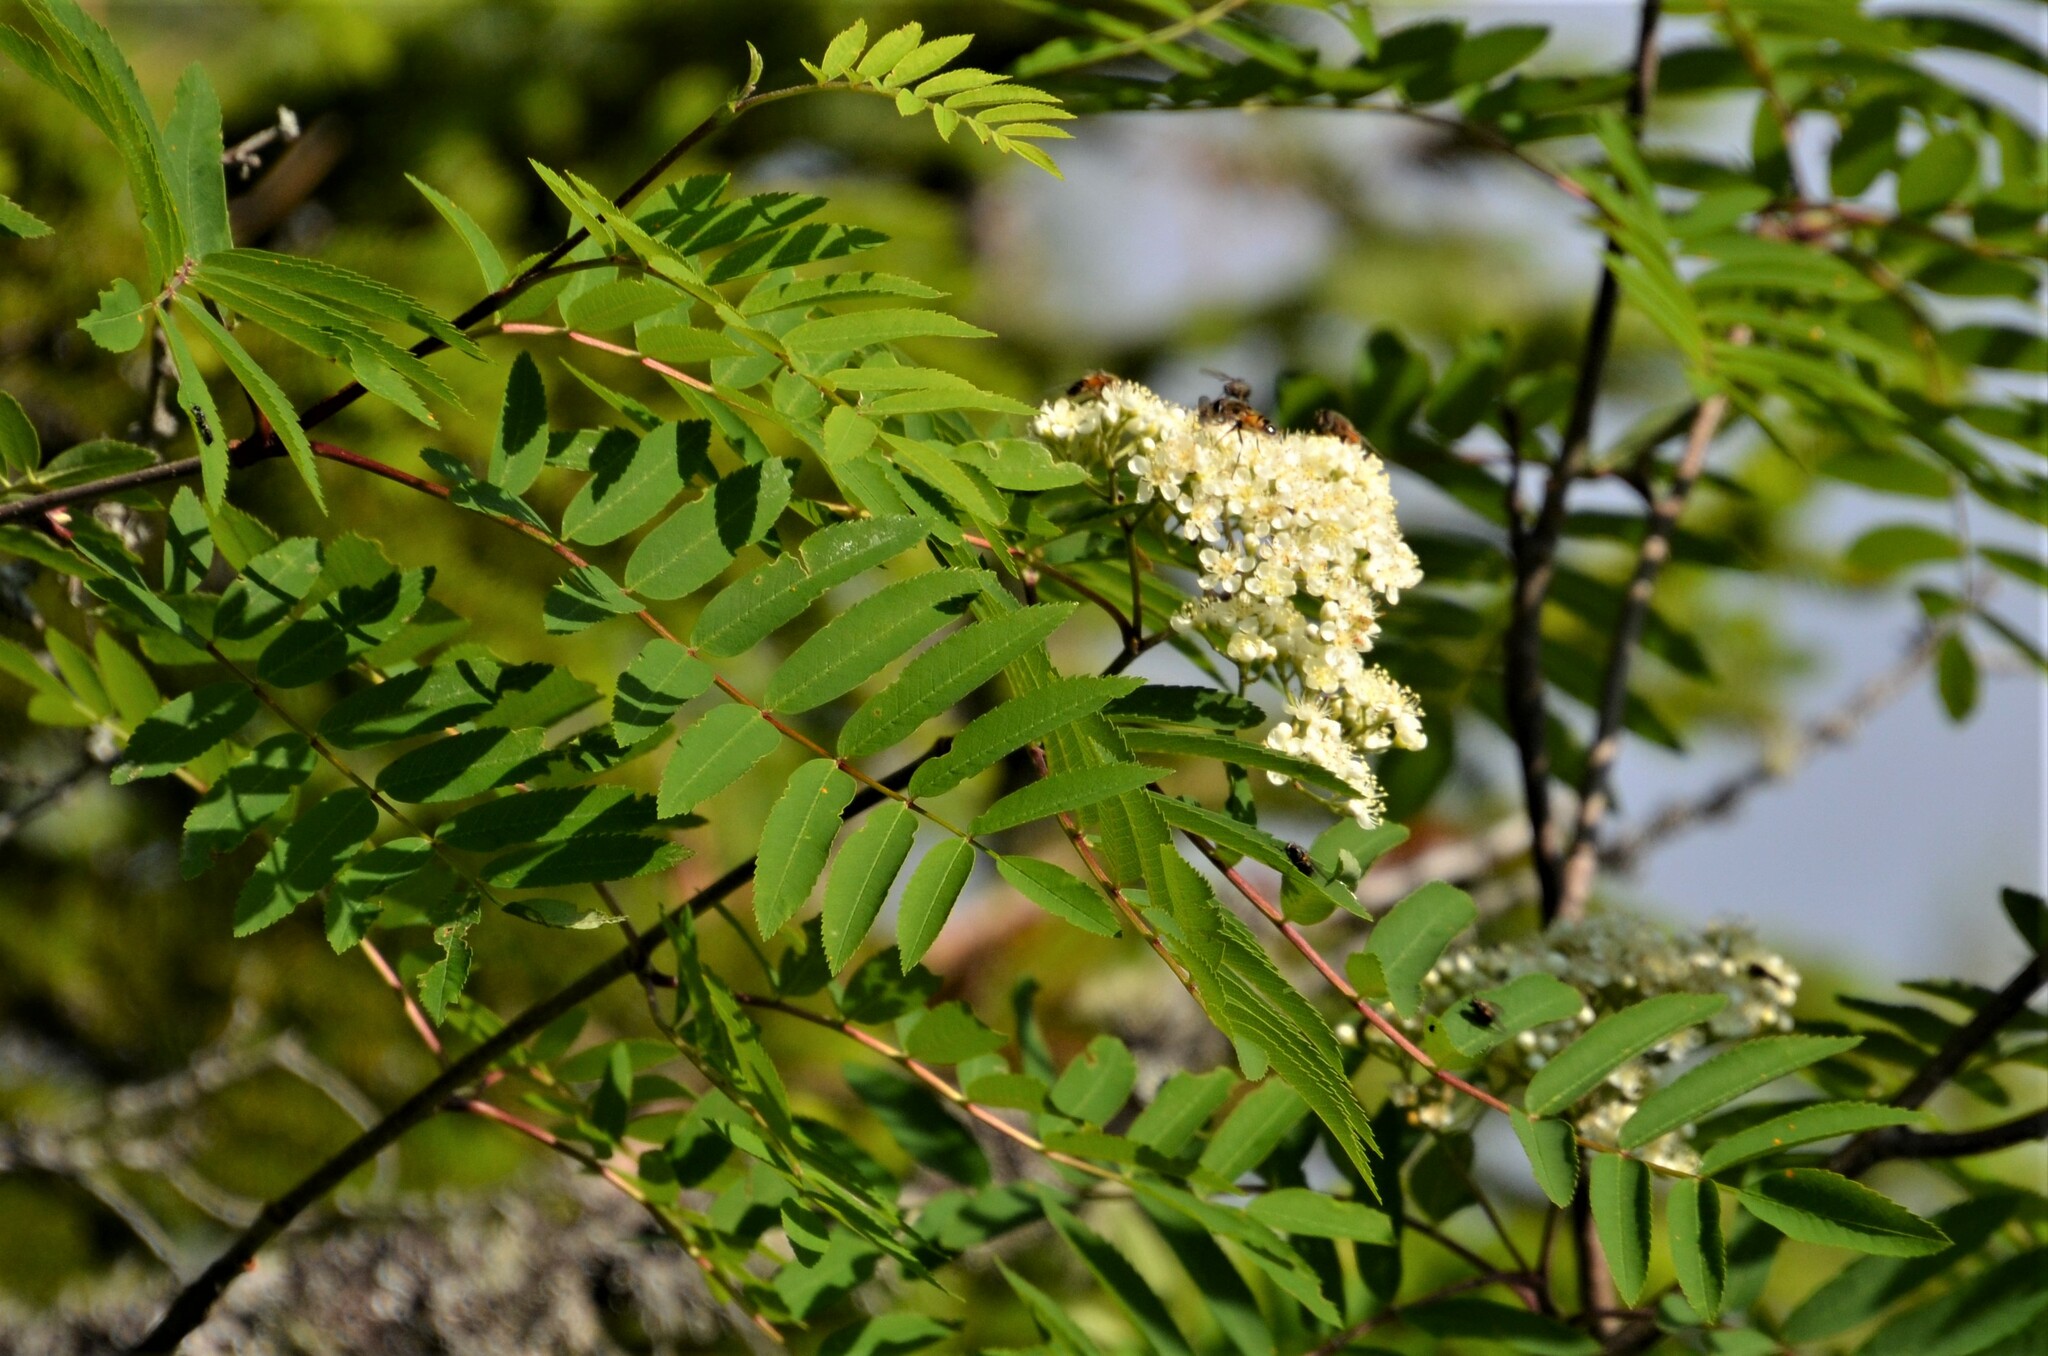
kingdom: Plantae
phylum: Tracheophyta
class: Magnoliopsida
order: Rosales
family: Rosaceae
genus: Sorbus
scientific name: Sorbus aucuparia
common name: Rowan
